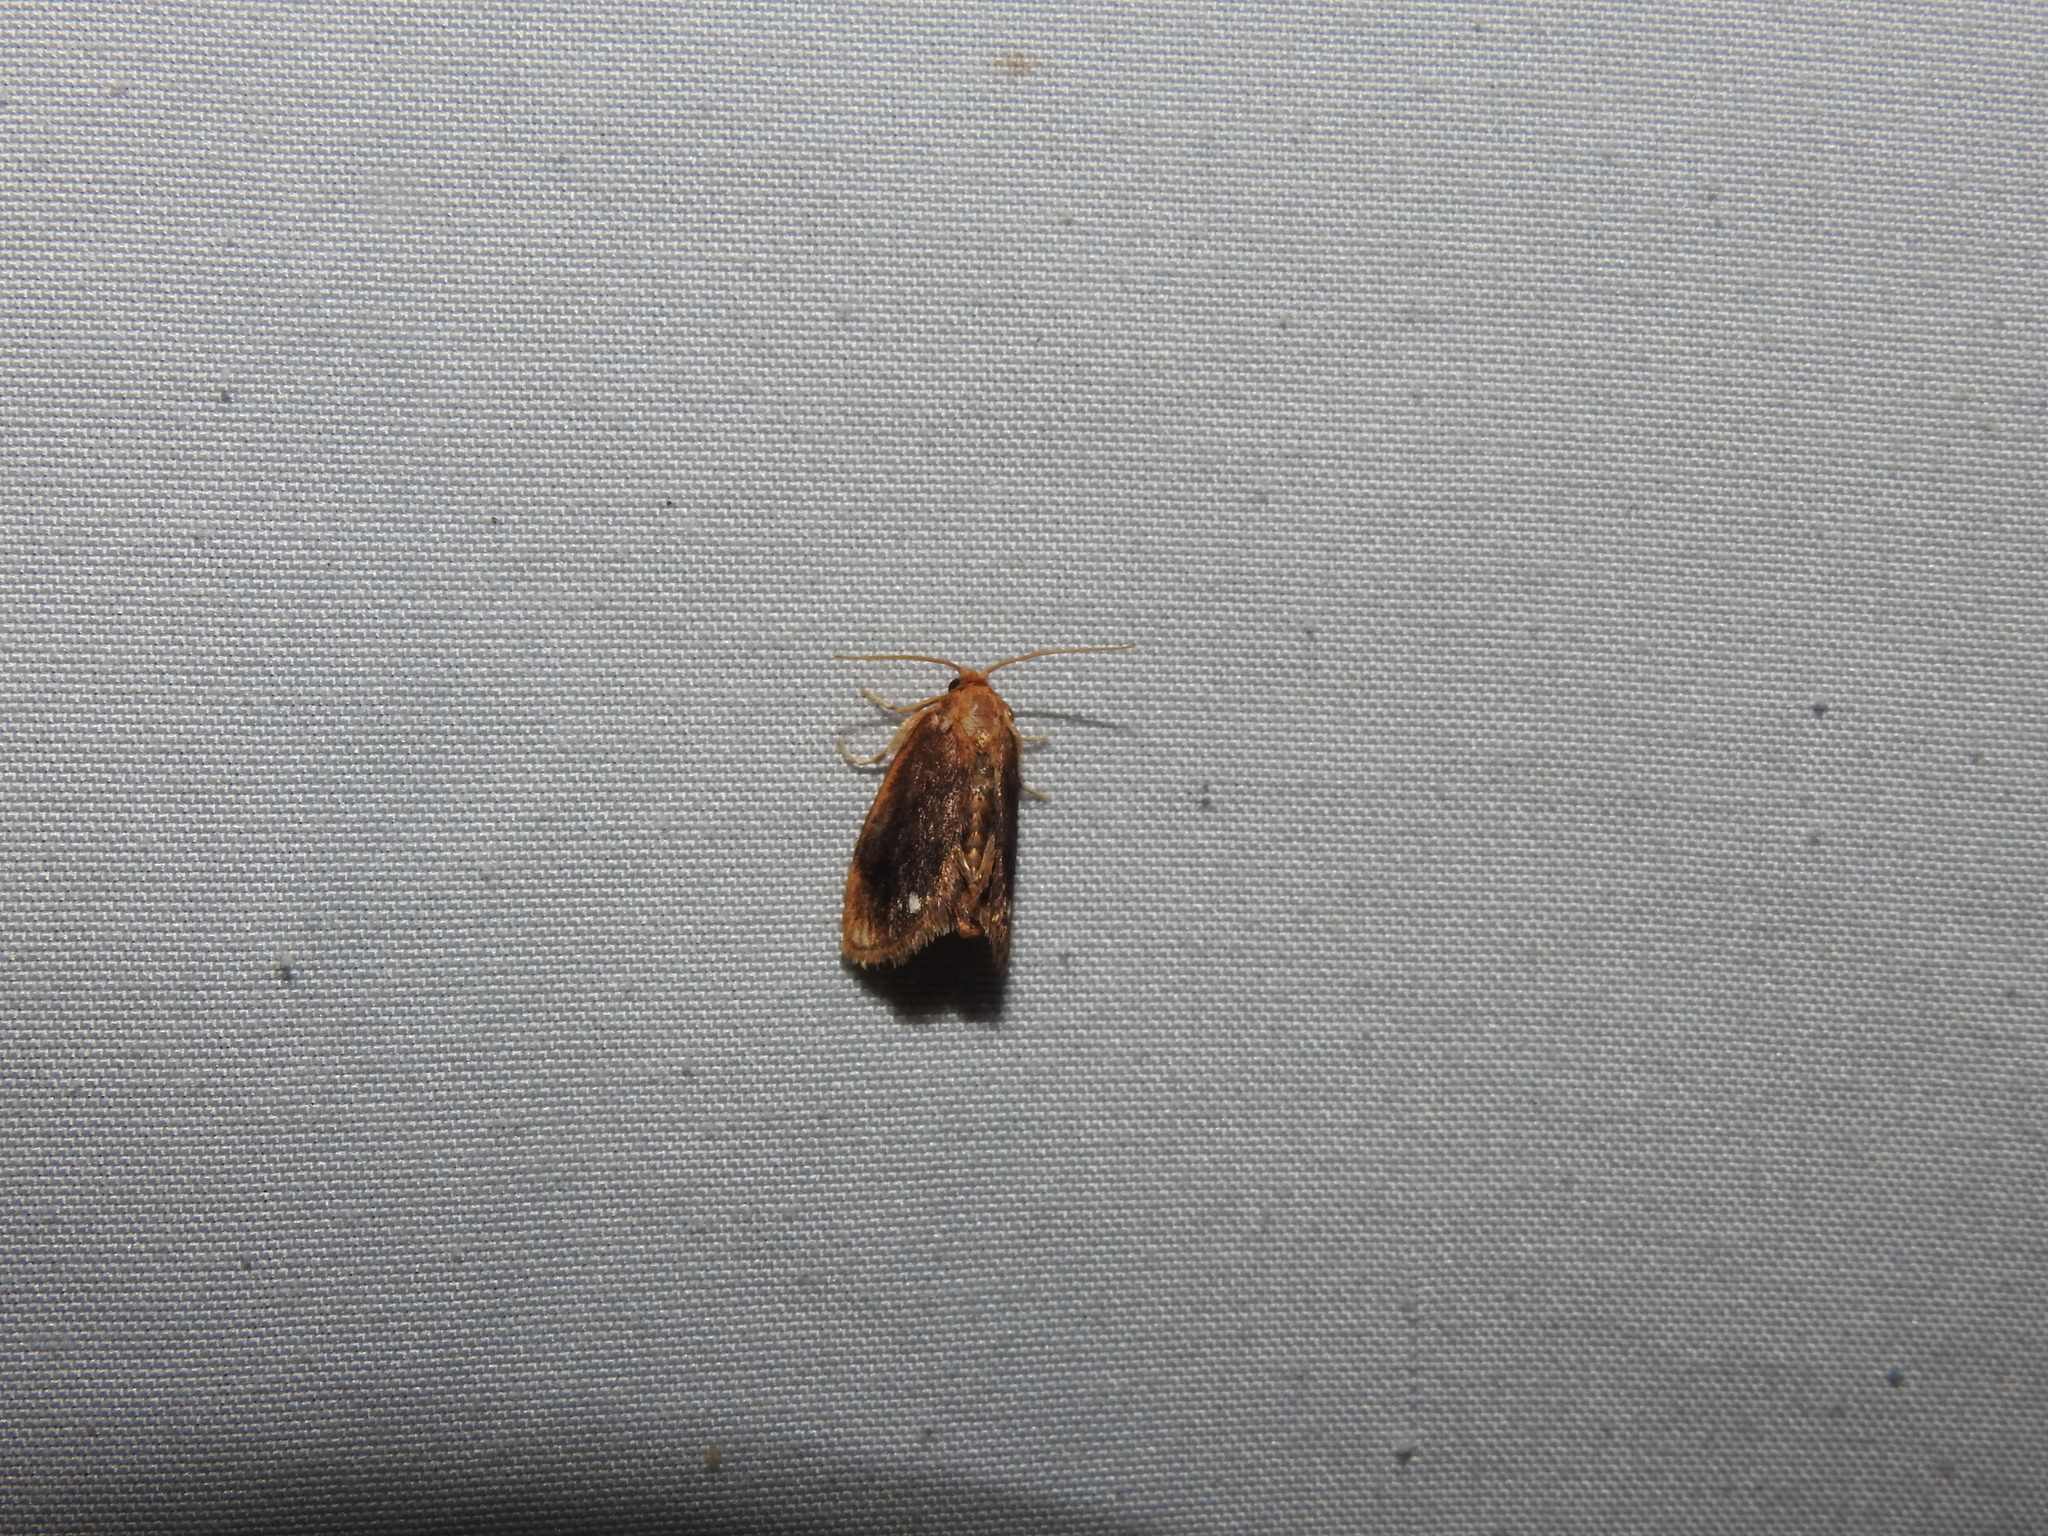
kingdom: Animalia
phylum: Arthropoda
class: Insecta
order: Lepidoptera
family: Limacodidae
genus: Packardia
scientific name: Packardia geminata
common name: Jeweled tailed slug moth
